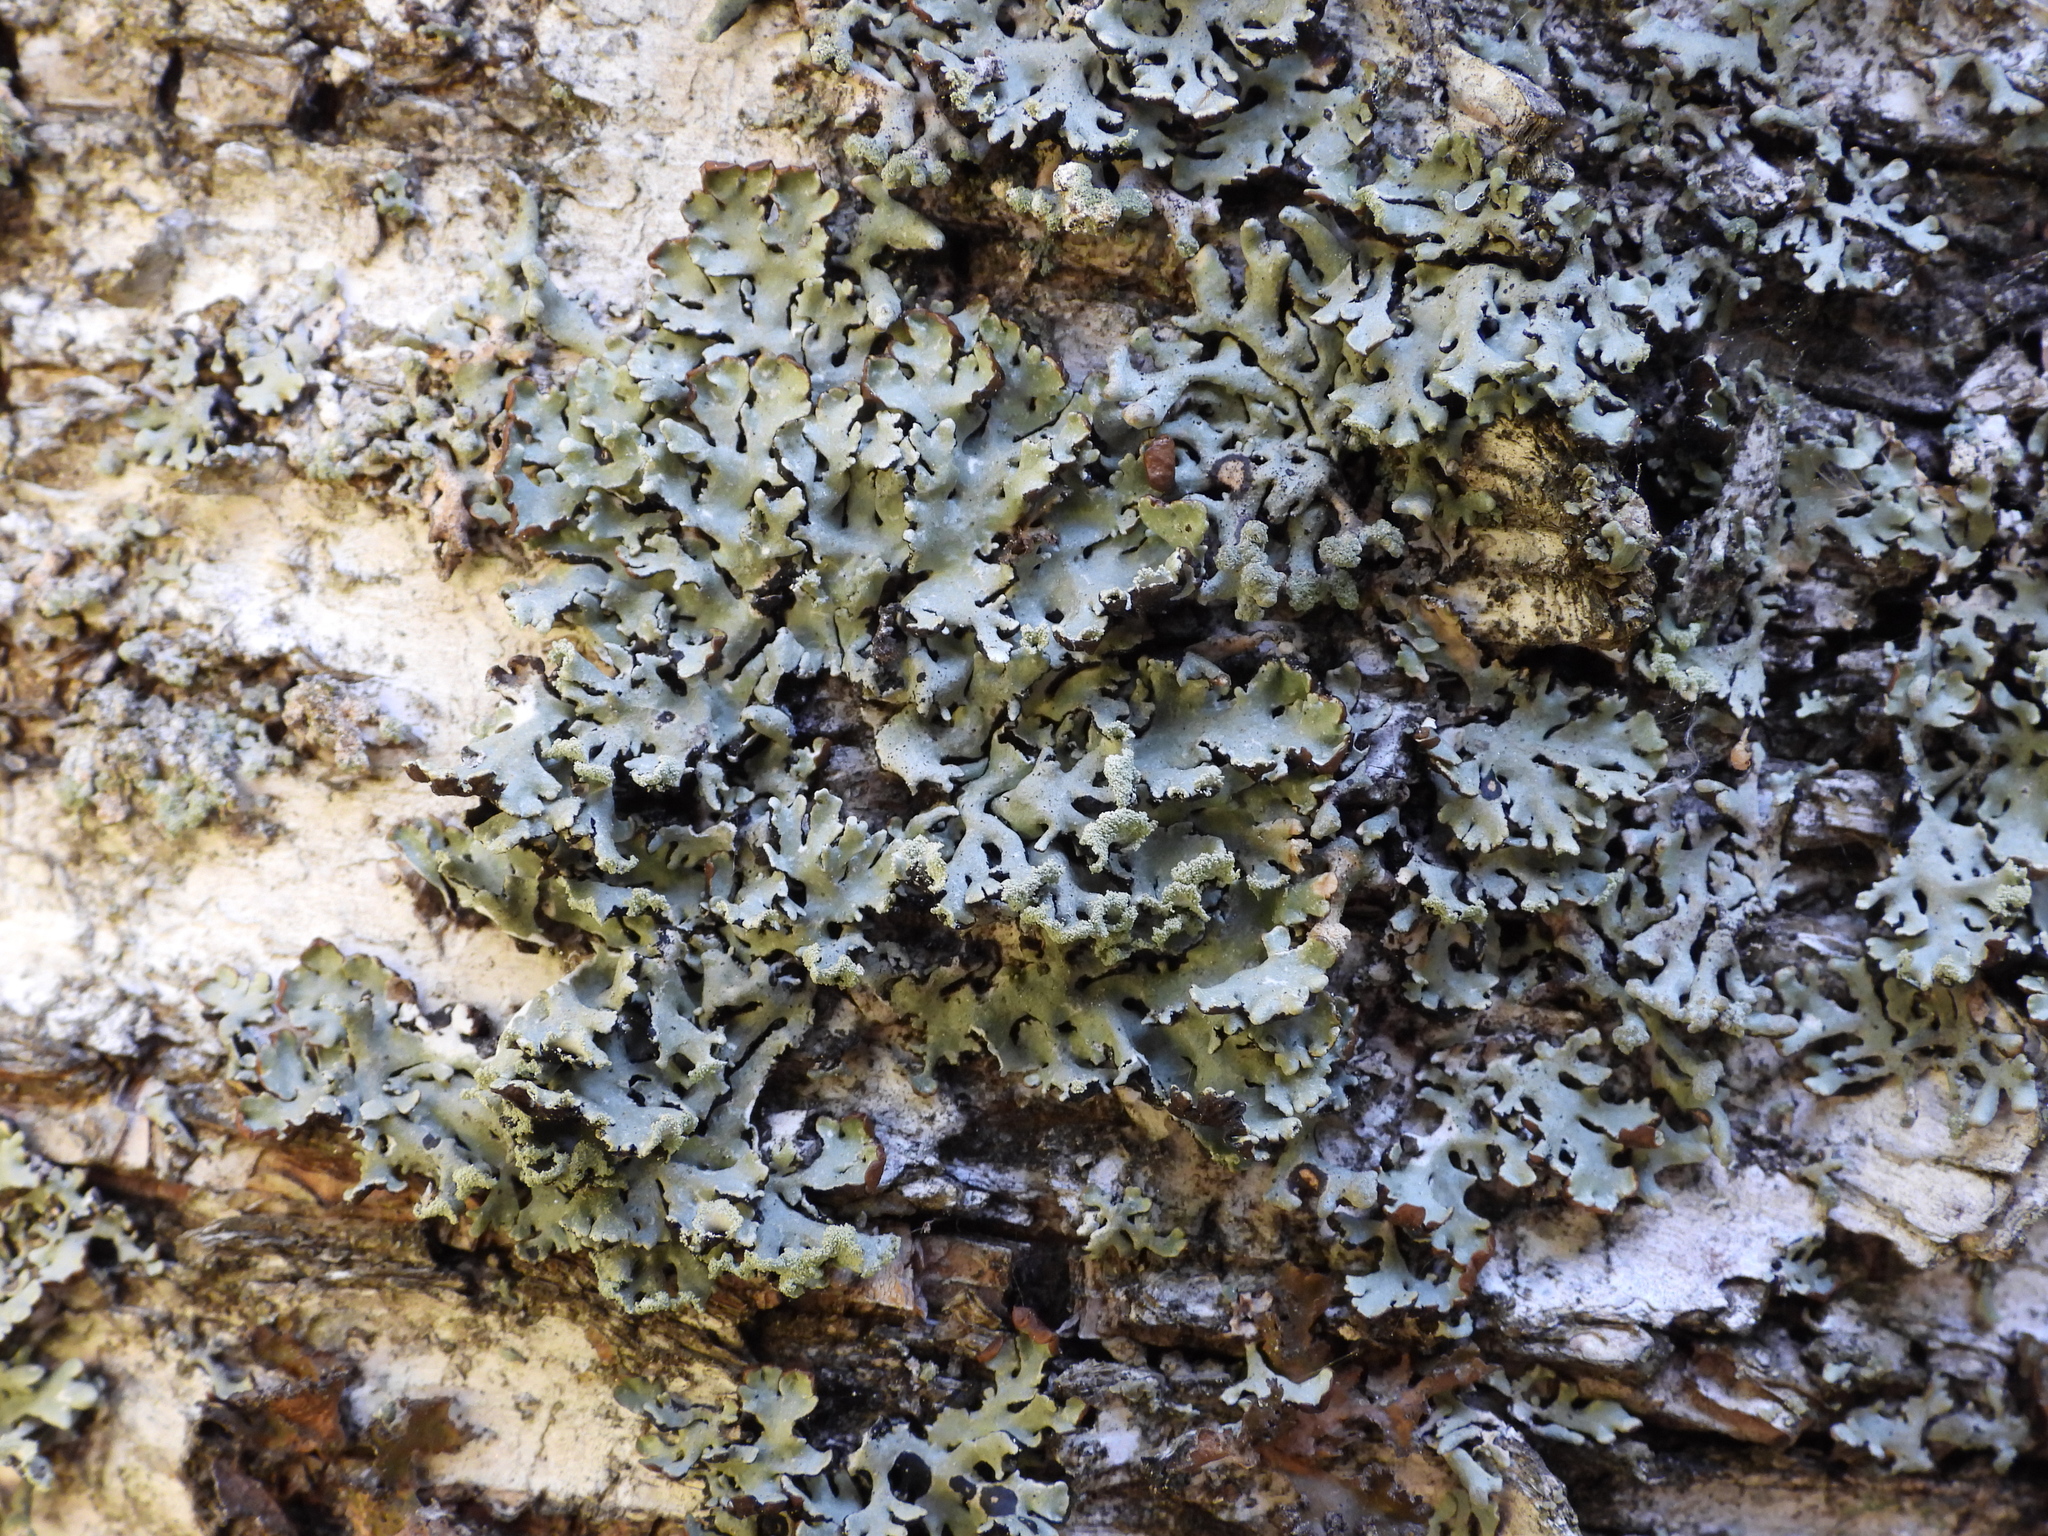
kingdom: Fungi
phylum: Ascomycota
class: Lecanoromycetes
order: Lecanorales
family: Parmeliaceae
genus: Hypogymnia
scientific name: Hypogymnia physodes
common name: Dark crottle
